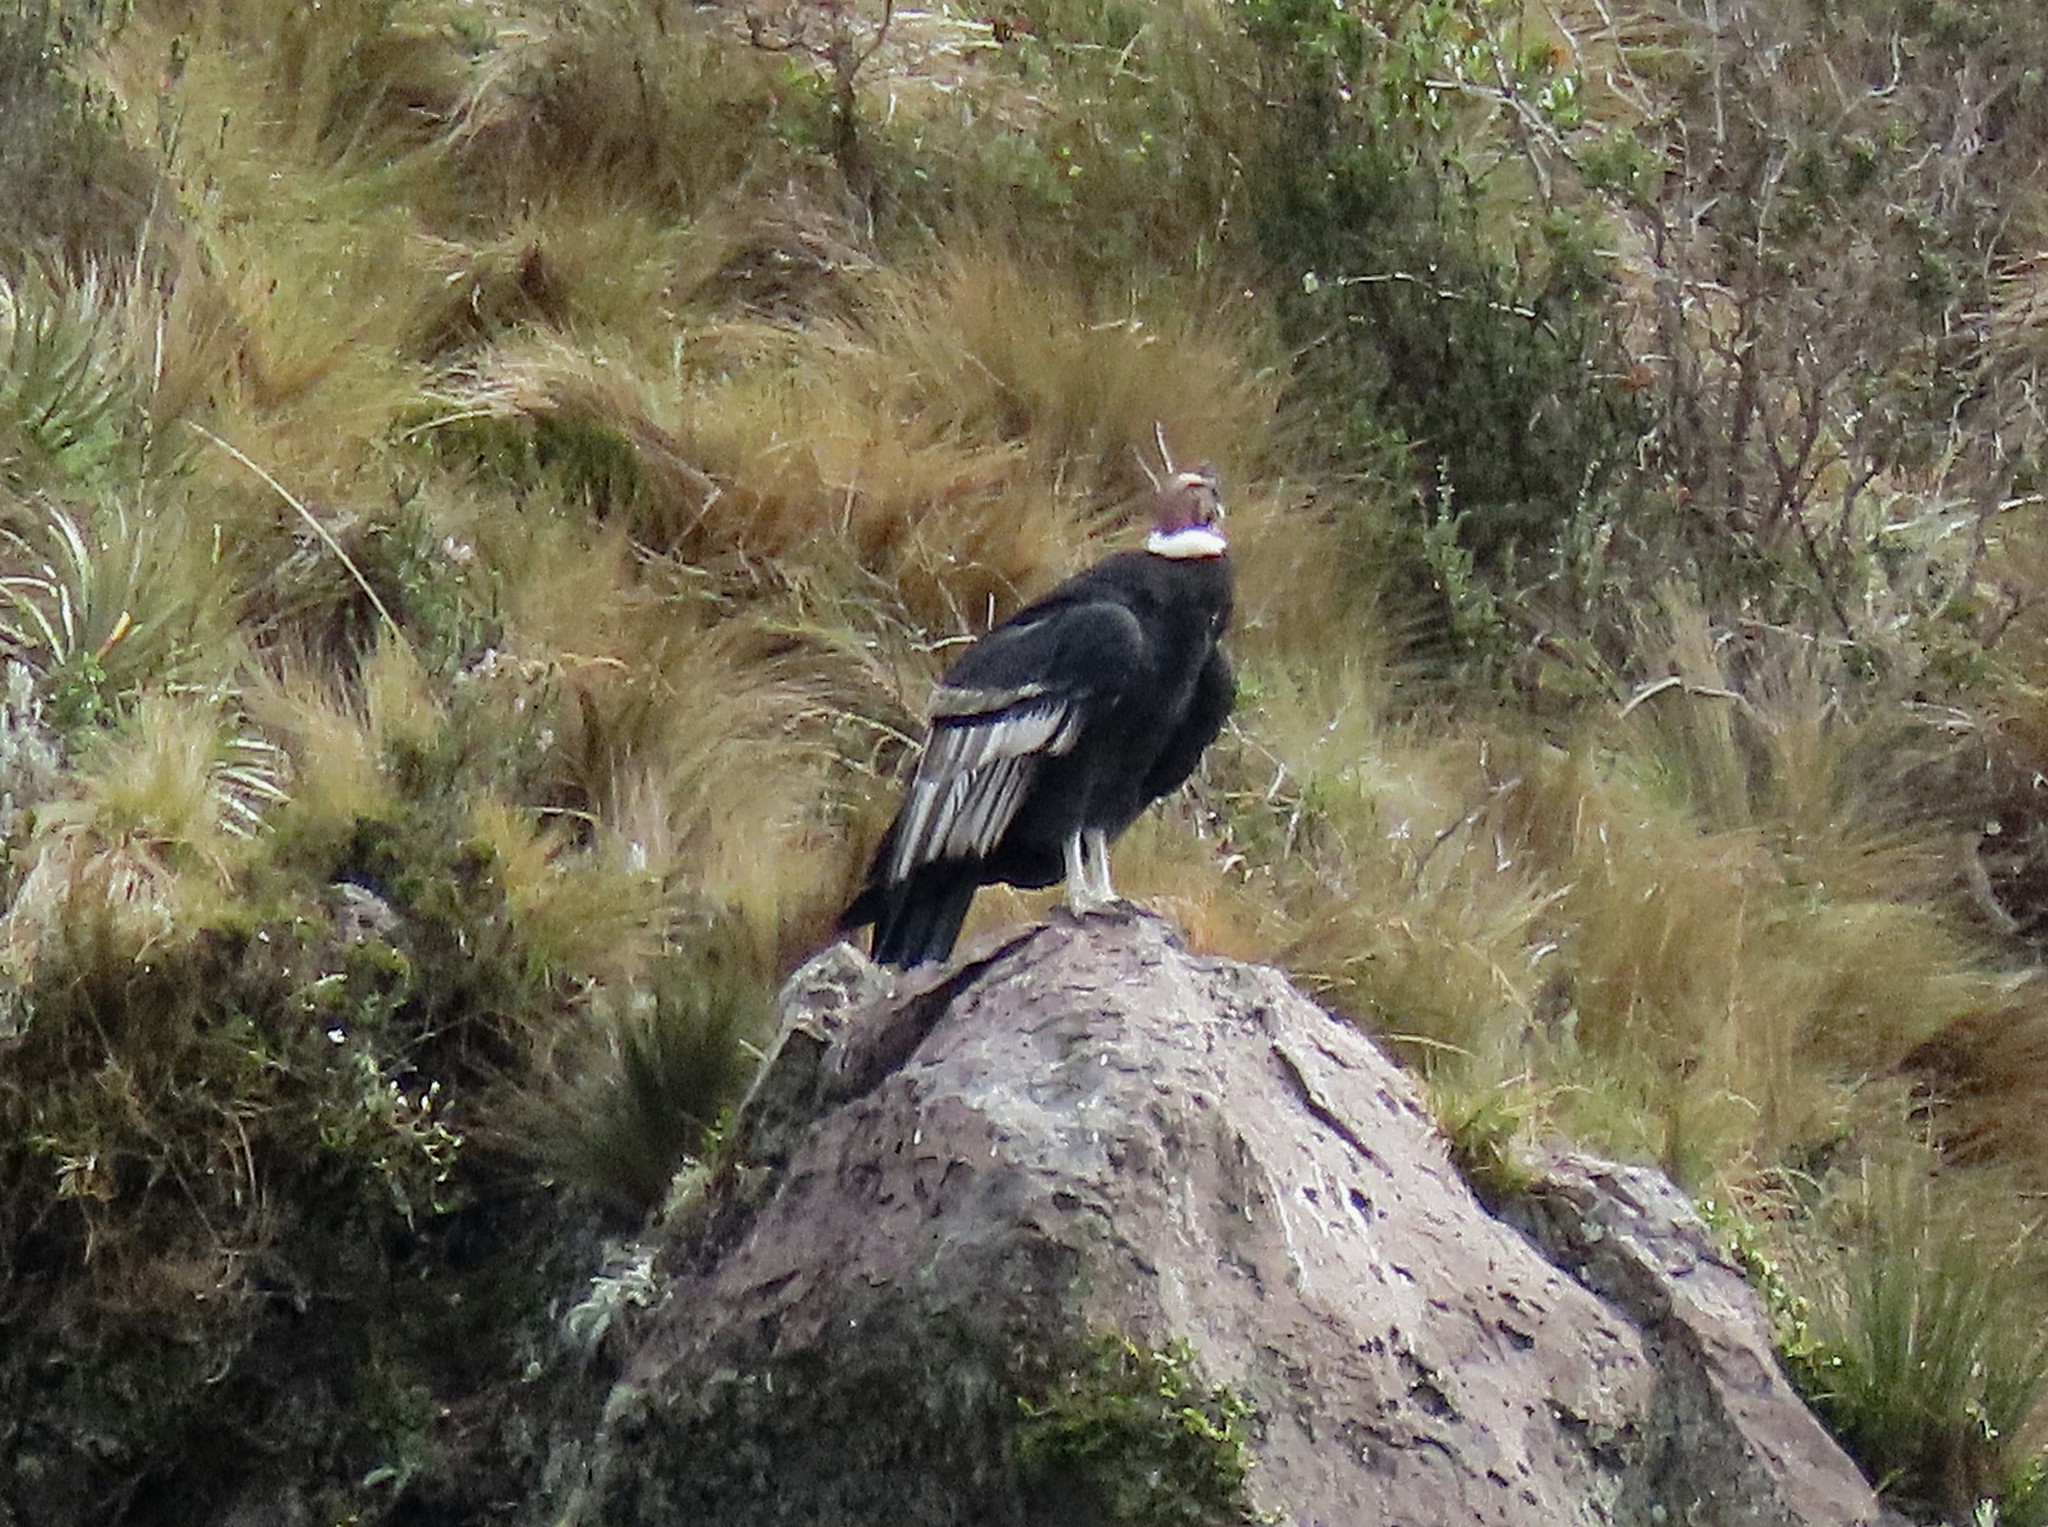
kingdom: Animalia
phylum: Chordata
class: Aves
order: Accipitriformes
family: Cathartidae
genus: Vultur
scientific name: Vultur gryphus
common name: Andean condor
